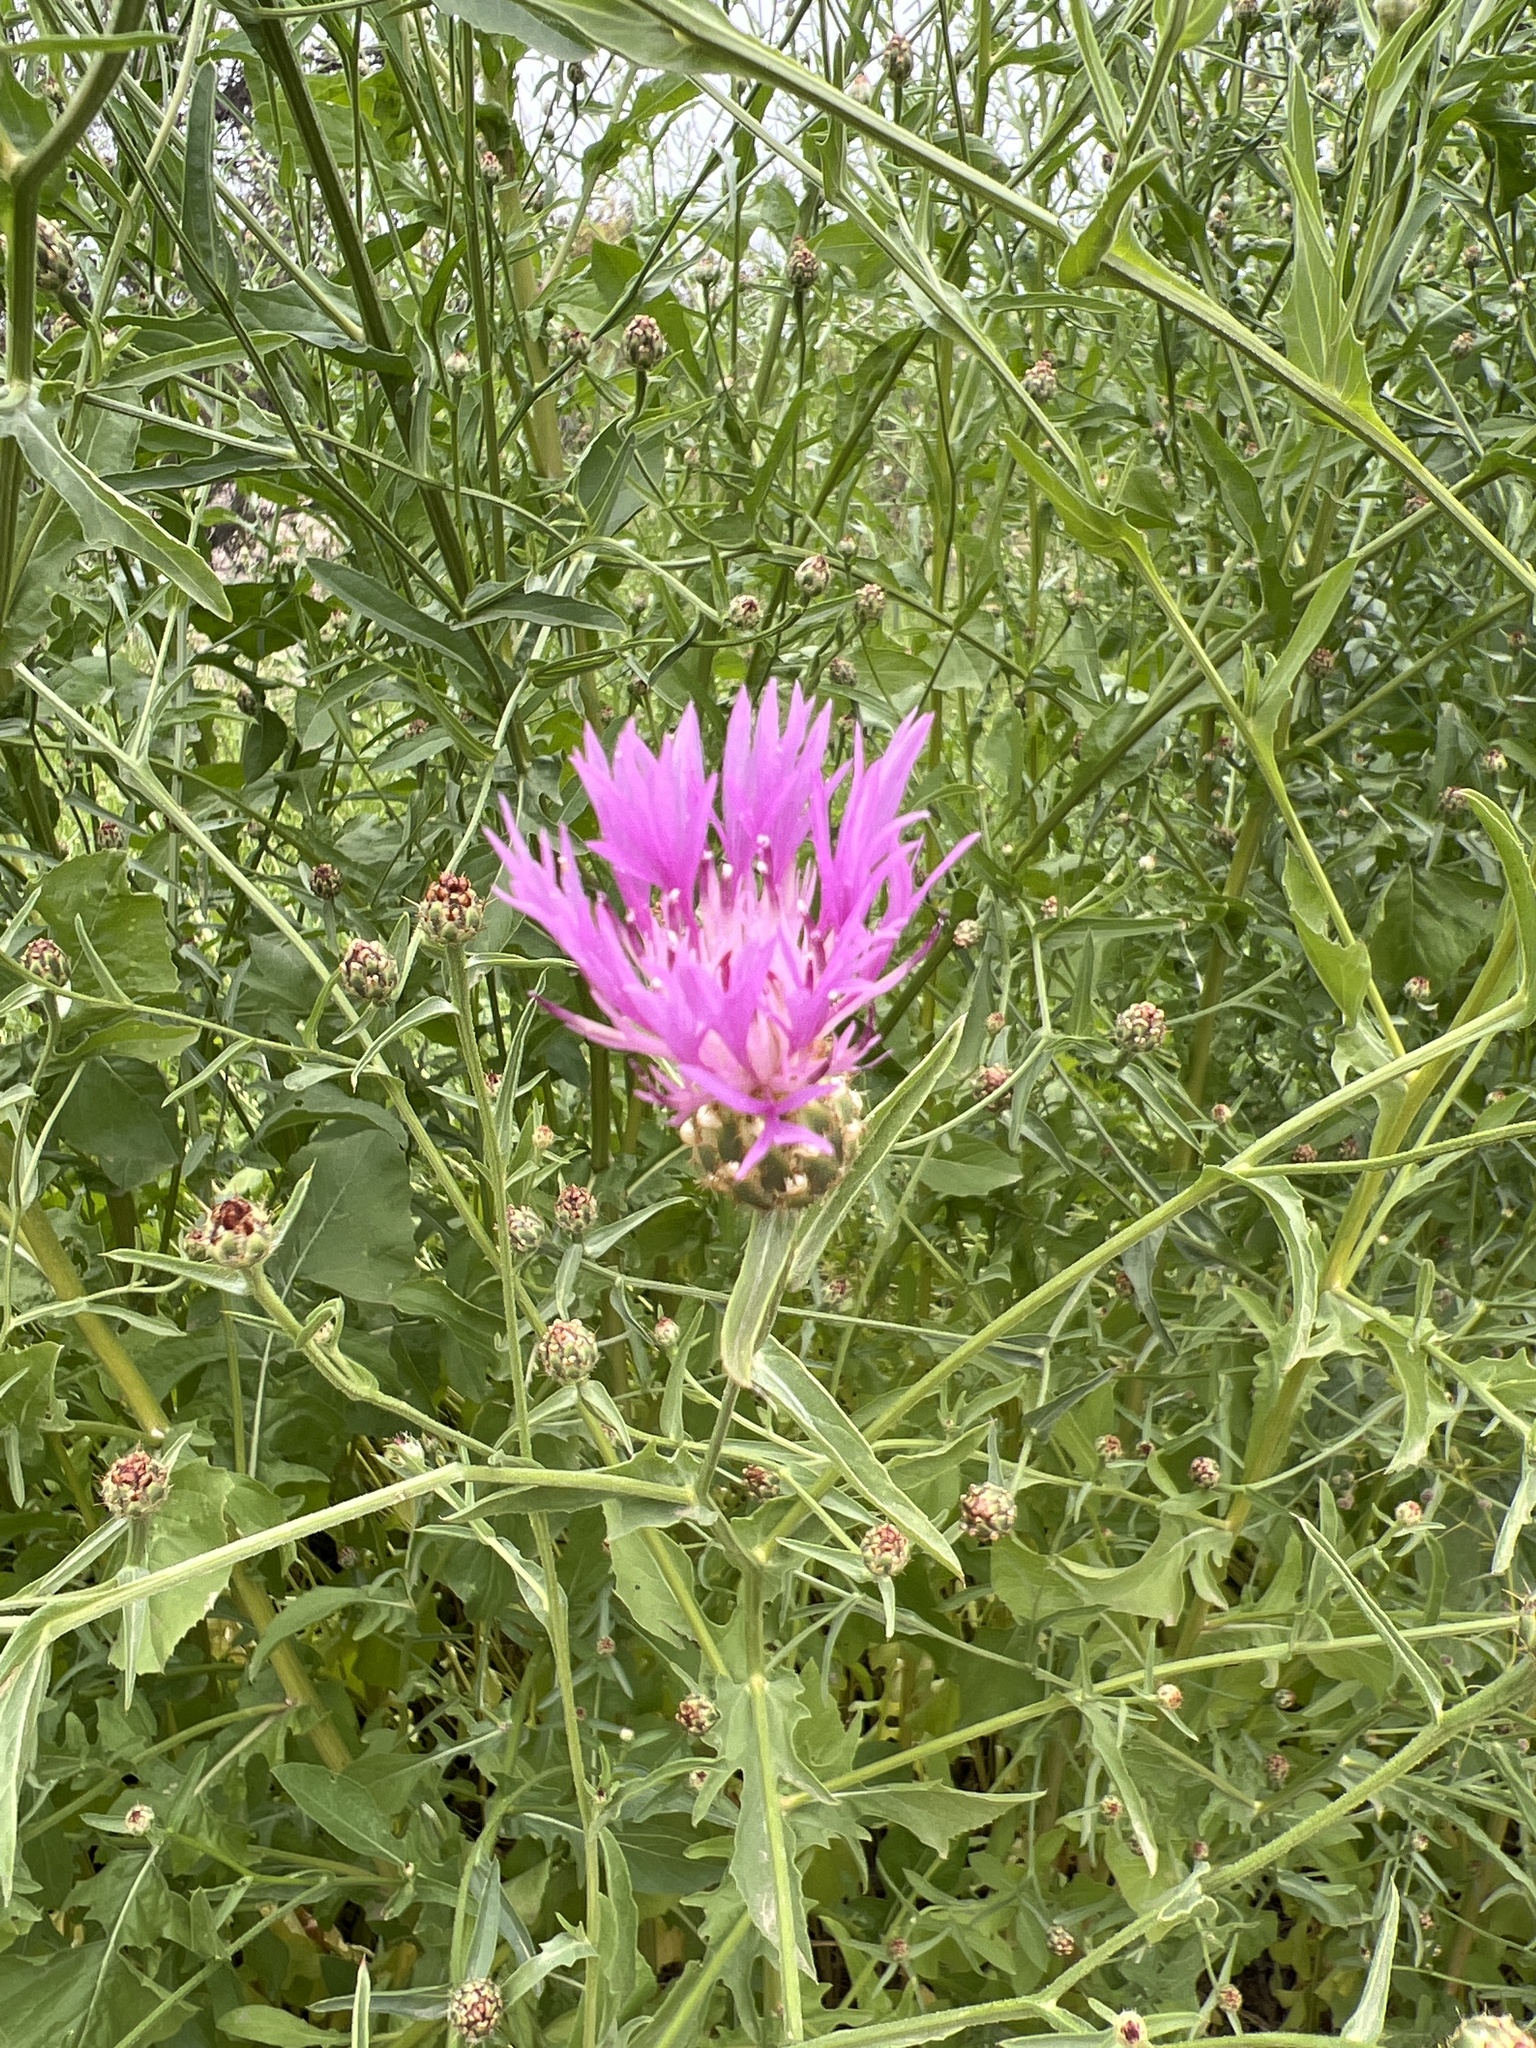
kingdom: Plantae
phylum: Tracheophyta
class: Magnoliopsida
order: Asterales
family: Asteraceae
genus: Centaurea
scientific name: Centaurea diluta
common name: Lesser star-thistle
